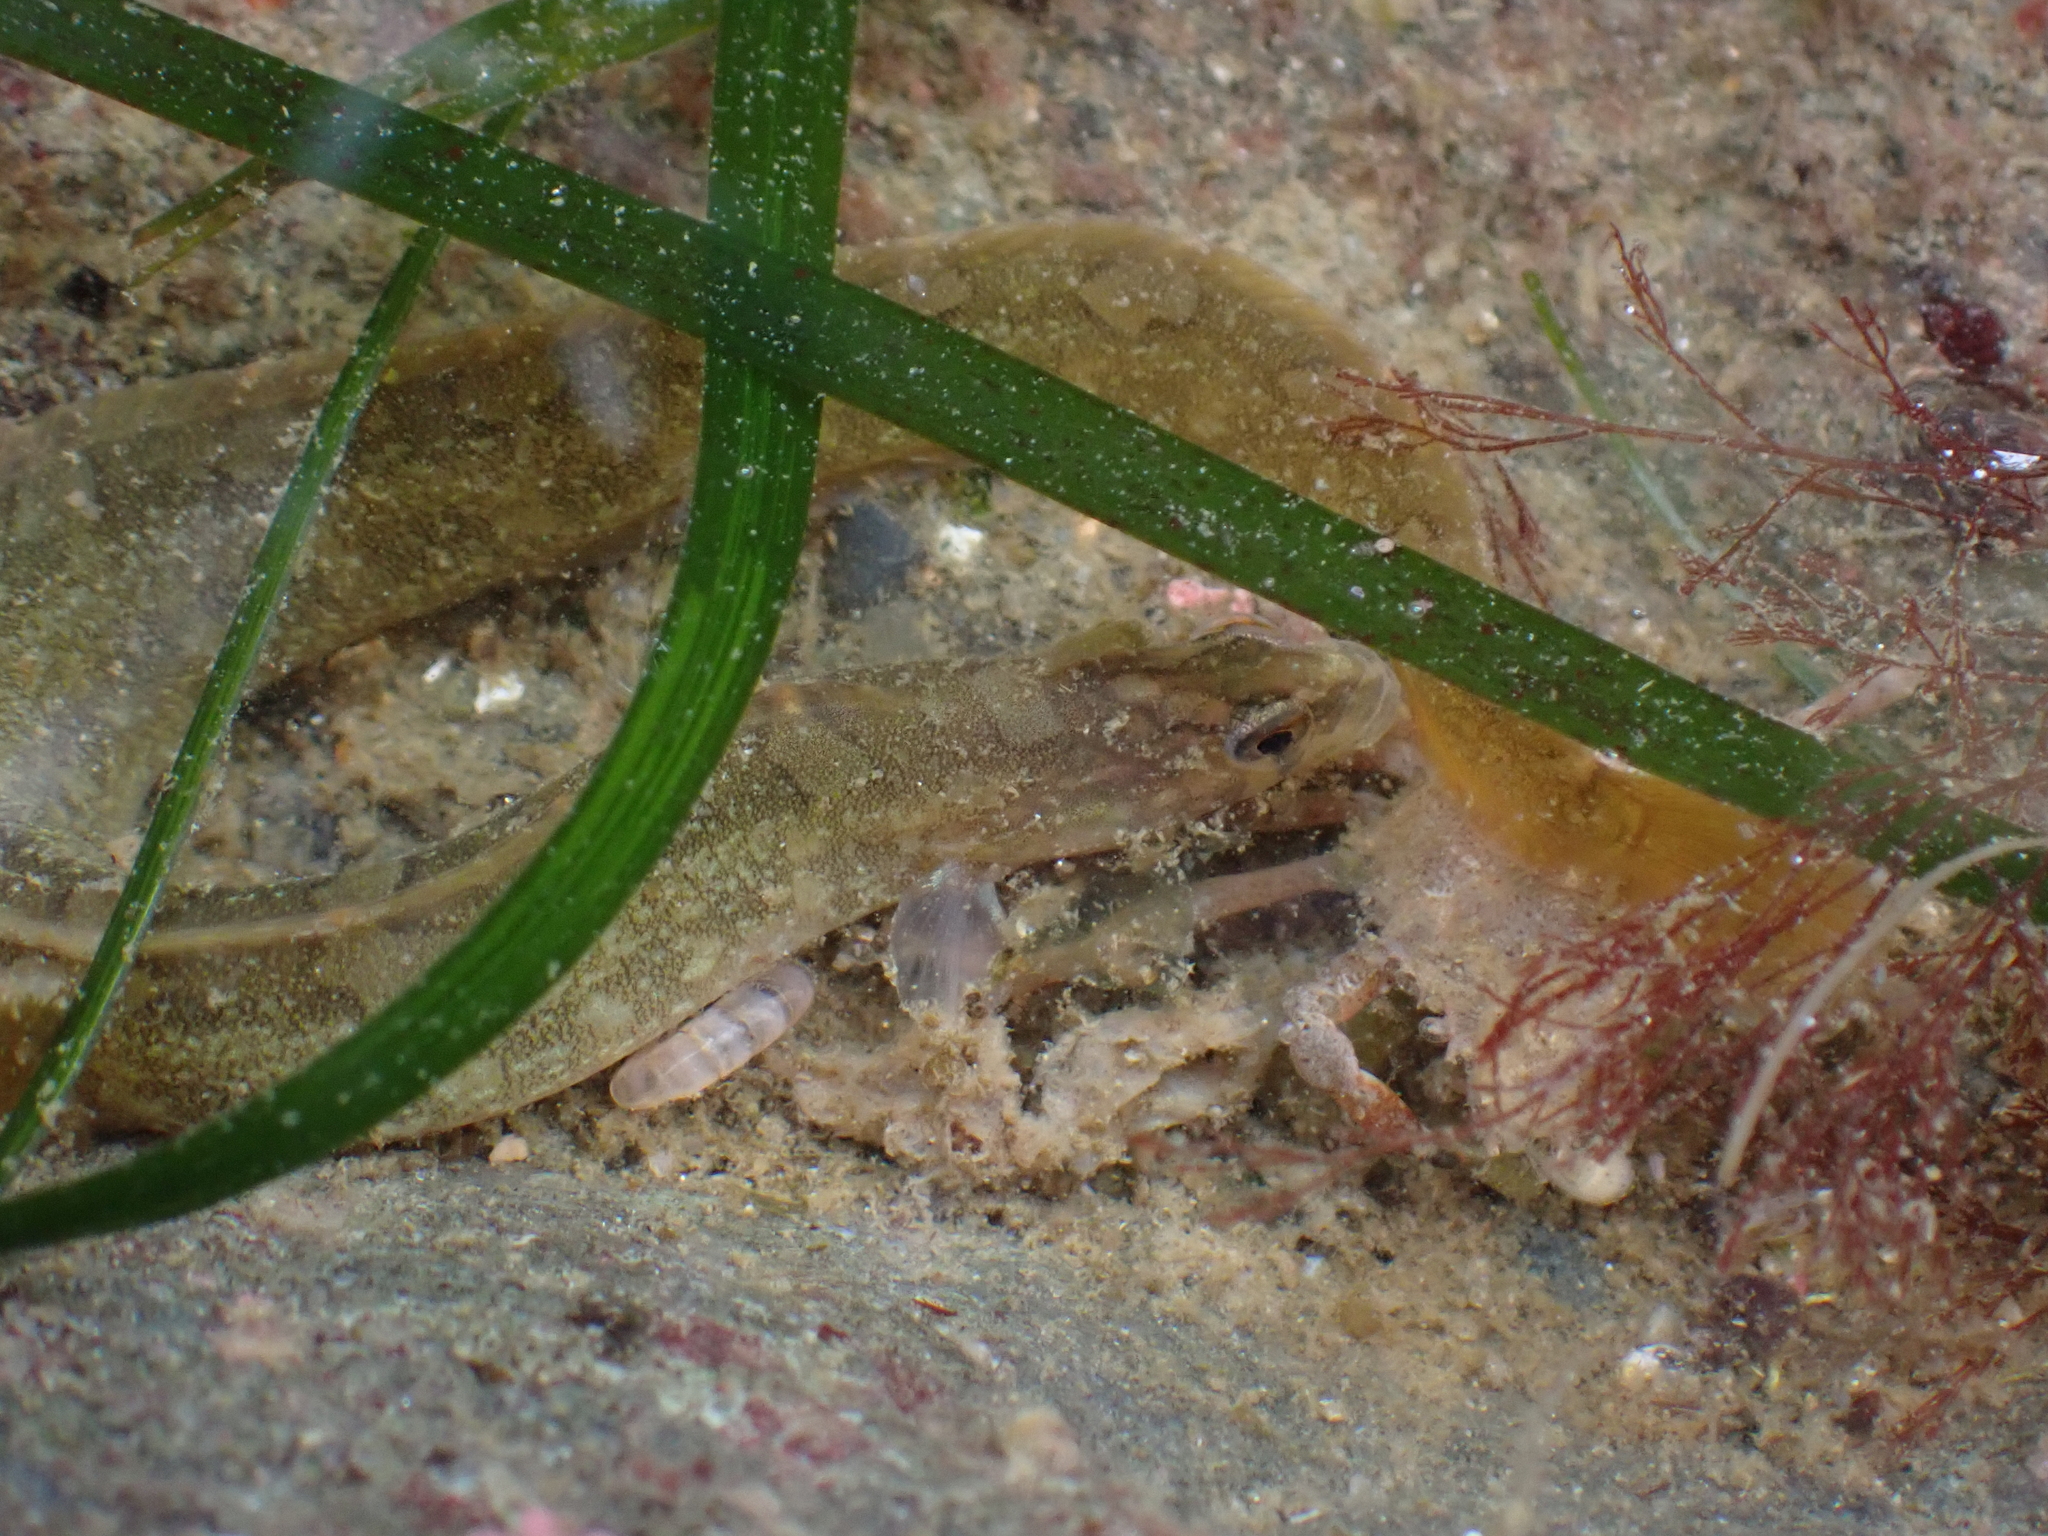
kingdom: Animalia
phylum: Chordata
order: Perciformes
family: Pholidae
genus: Pholis
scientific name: Pholis laeta
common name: Crescent gunnel
